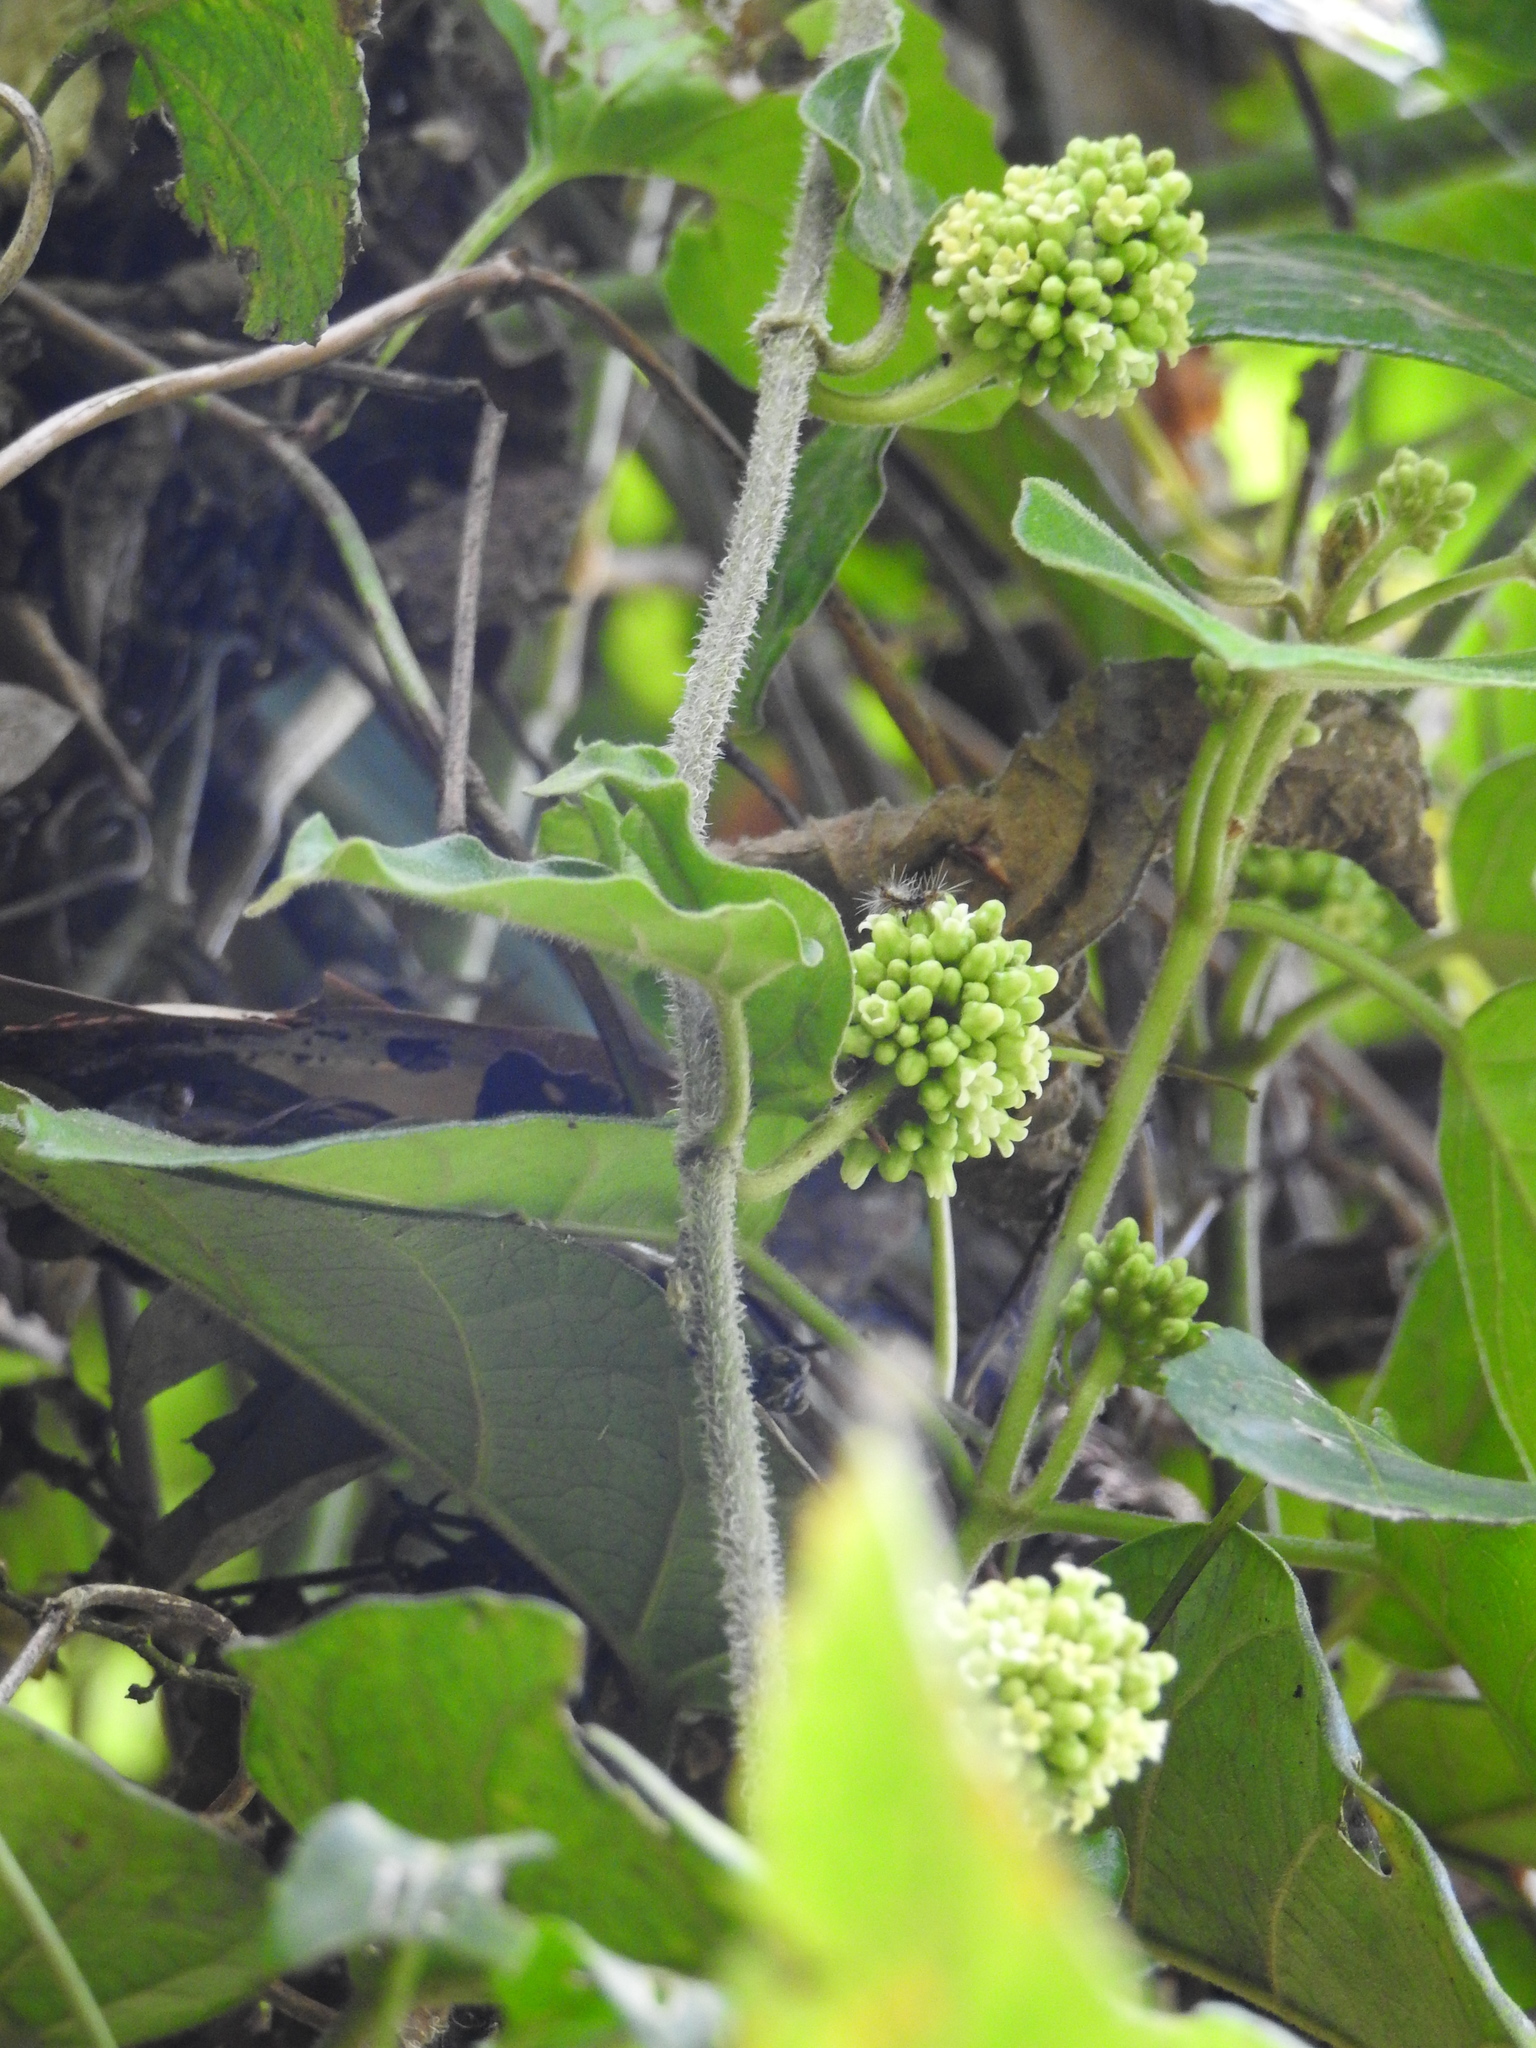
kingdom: Plantae
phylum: Tracheophyta
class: Magnoliopsida
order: Gentianales
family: Apocynaceae
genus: Marsdenia
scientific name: Marsdenia tinctoria
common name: Climbing-indigo
